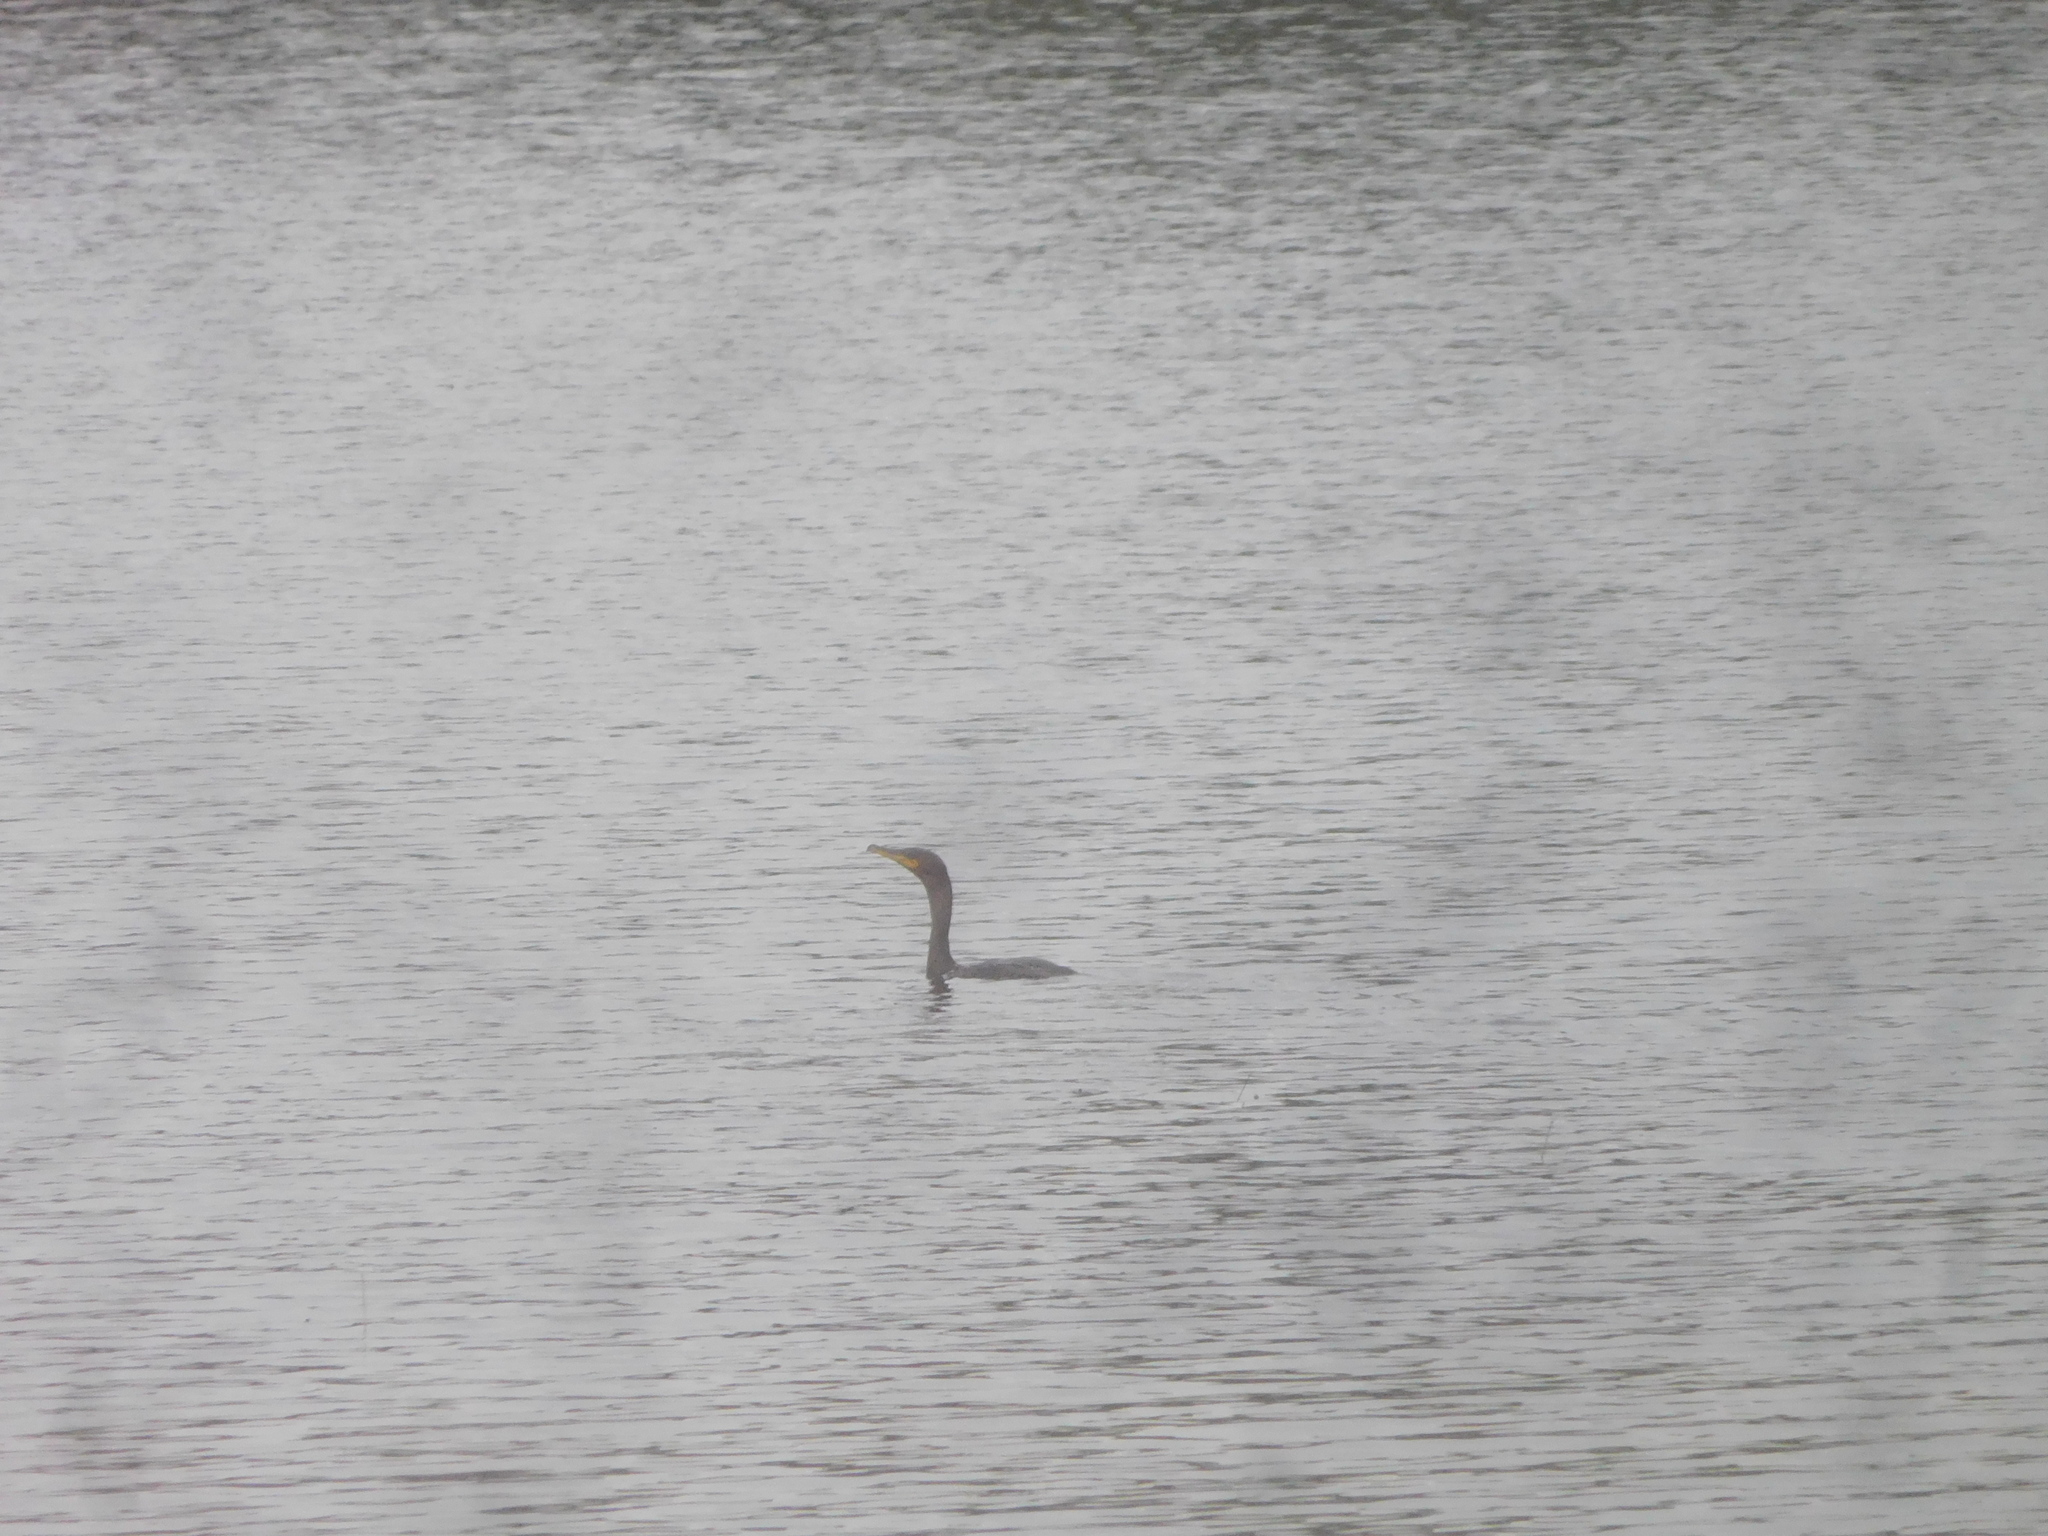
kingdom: Animalia
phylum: Chordata
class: Aves
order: Suliformes
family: Phalacrocoracidae
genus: Phalacrocorax
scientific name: Phalacrocorax auritus
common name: Double-crested cormorant
